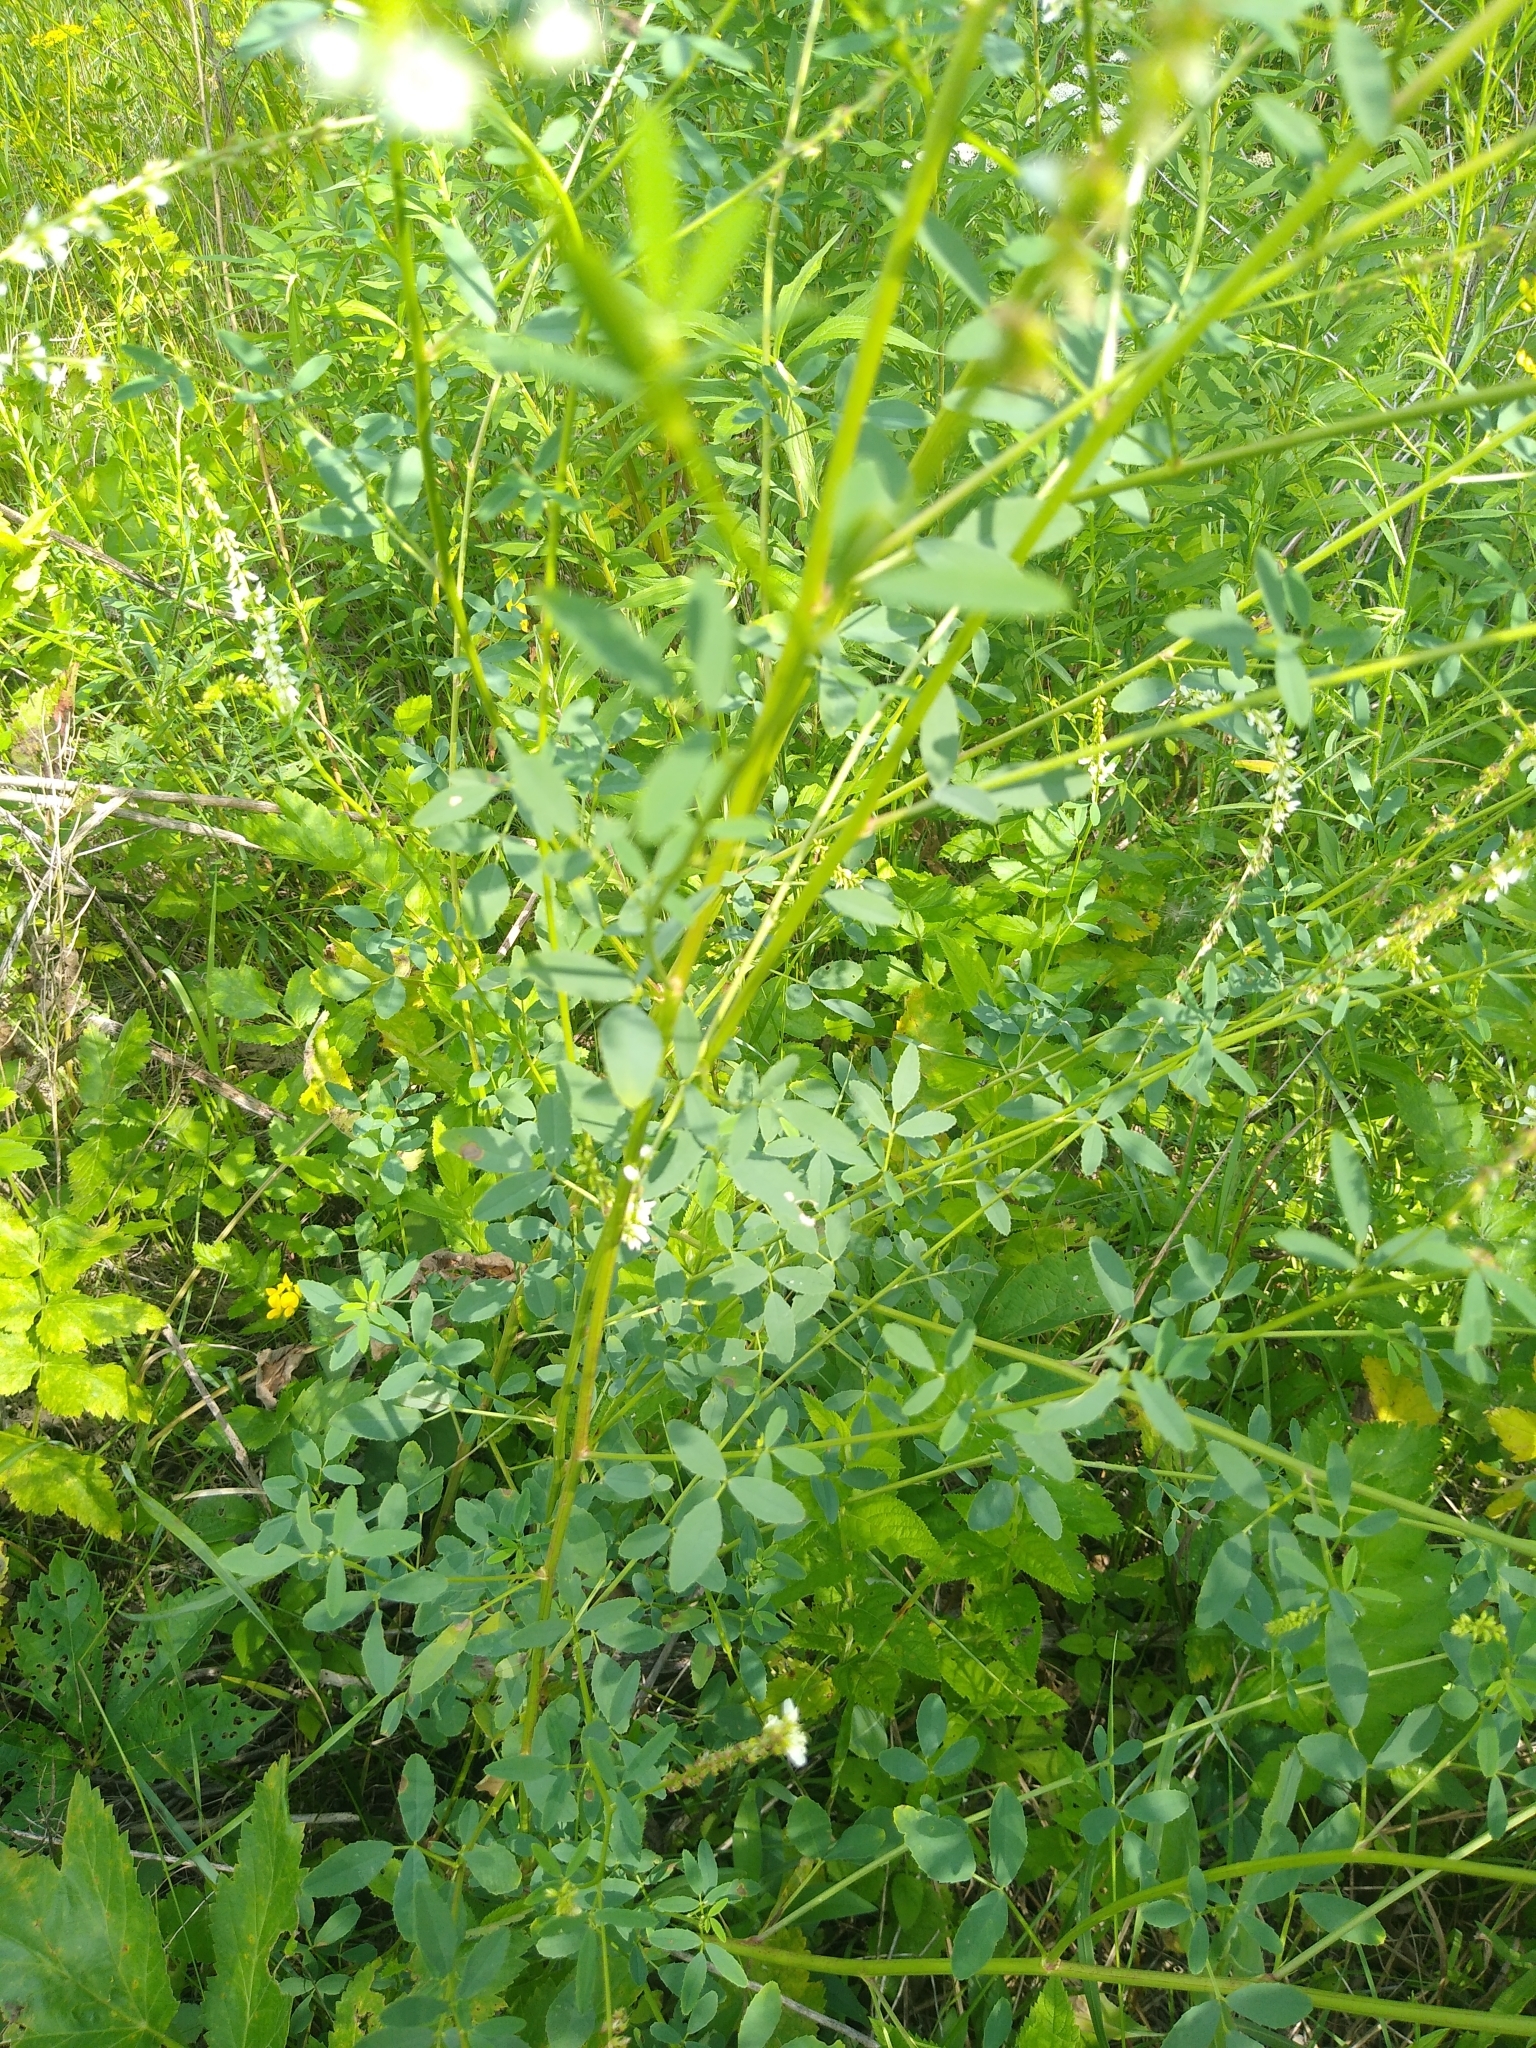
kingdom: Plantae
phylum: Tracheophyta
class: Magnoliopsida
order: Fabales
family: Fabaceae
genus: Melilotus
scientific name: Melilotus albus
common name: White melilot
